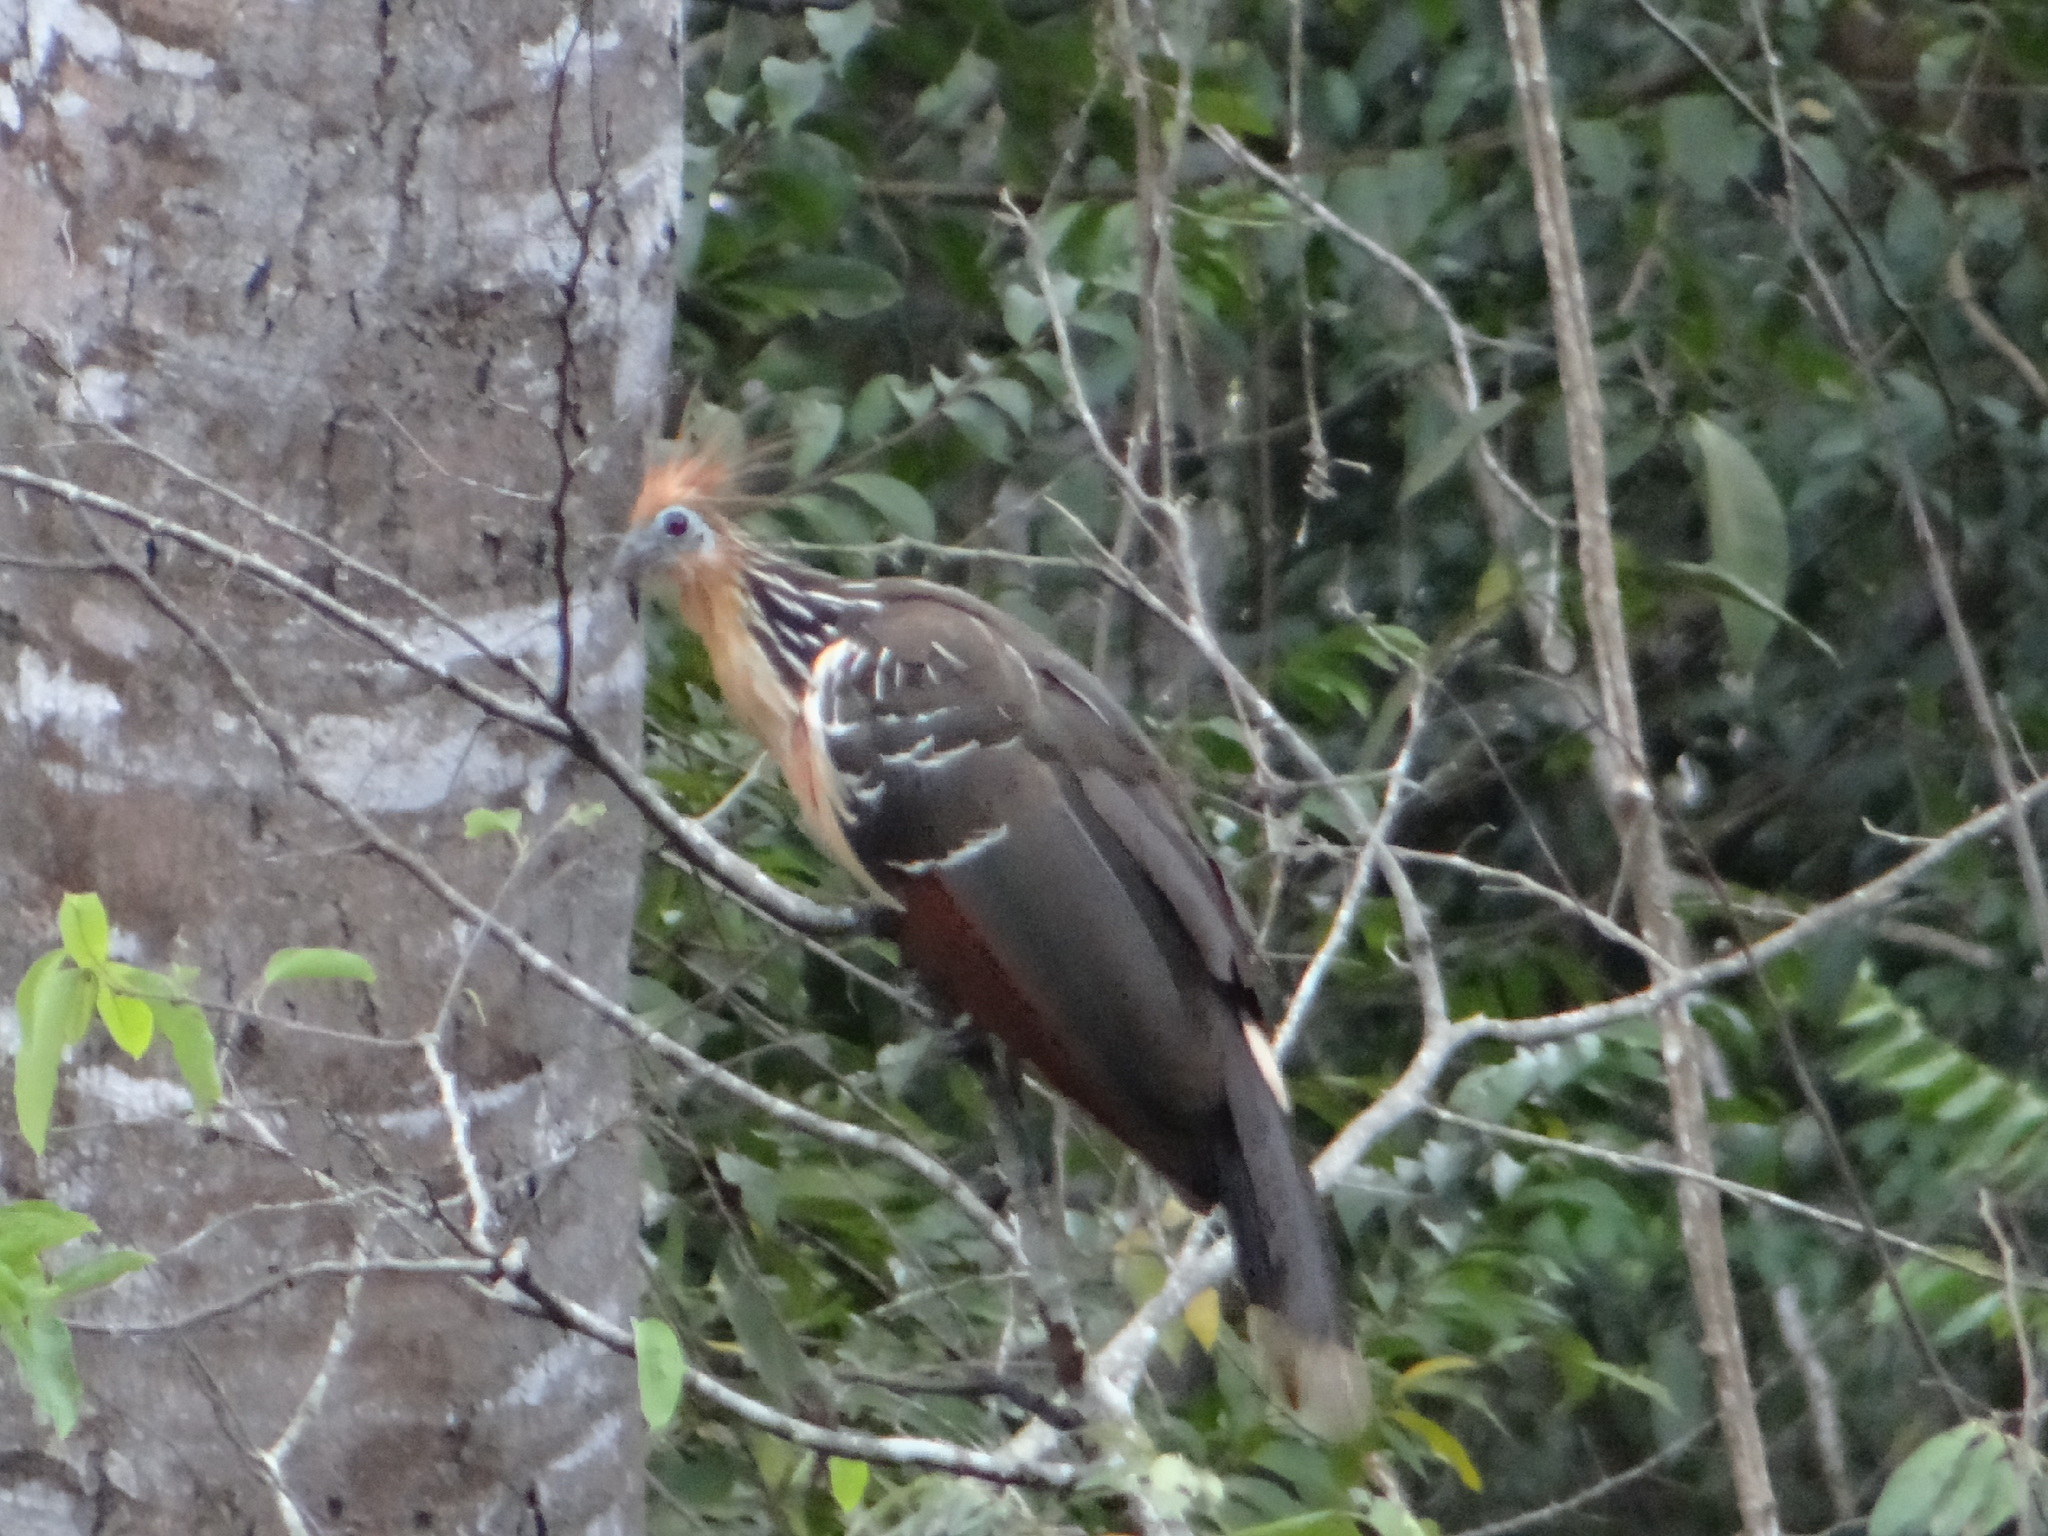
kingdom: Animalia
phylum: Chordata
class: Aves
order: Opisthocomiformes
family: Opisthocomidae
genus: Opisthocomus
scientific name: Opisthocomus hoazin
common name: Hoatzin
